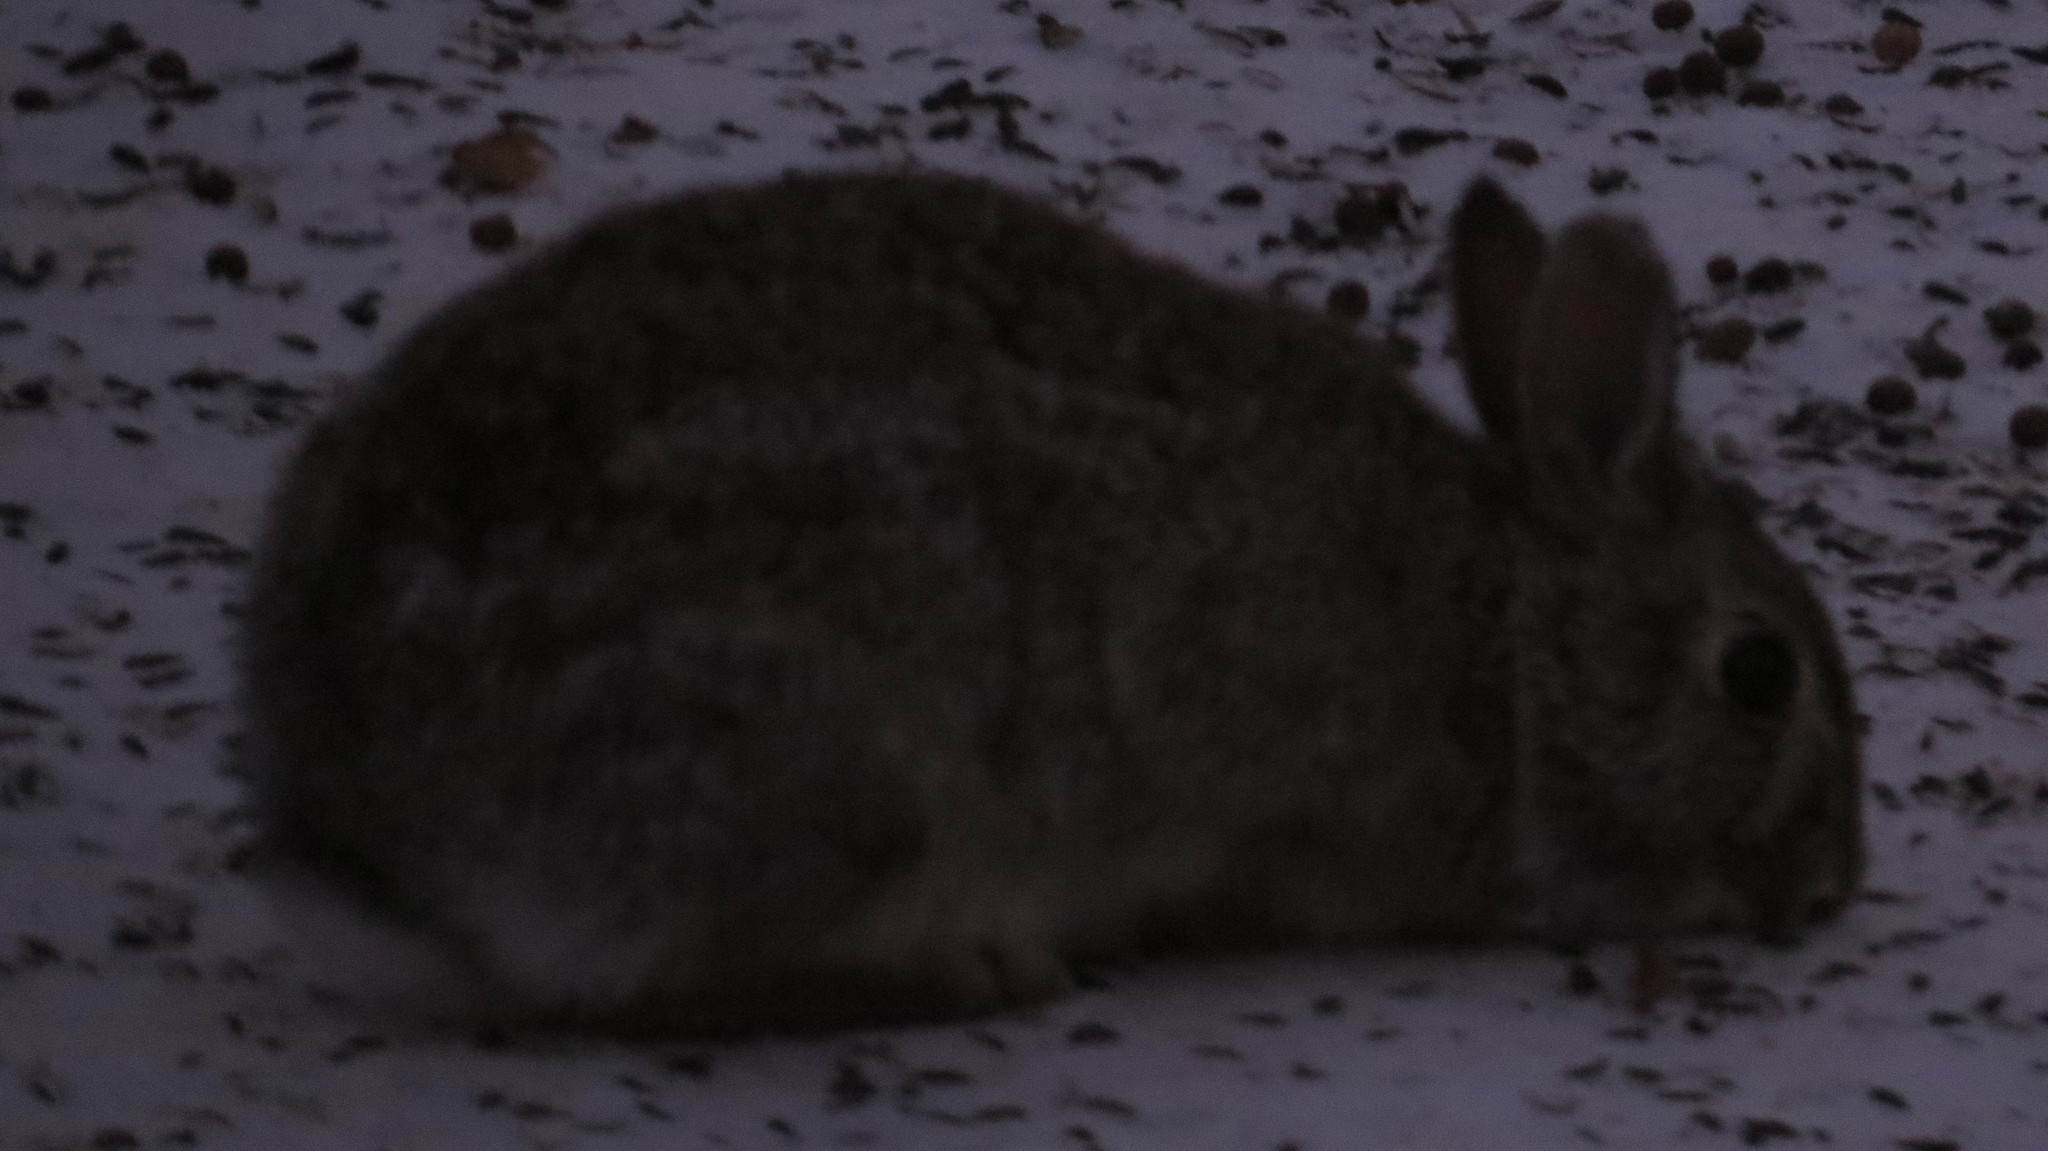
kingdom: Animalia
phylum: Chordata
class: Mammalia
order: Lagomorpha
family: Leporidae
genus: Sylvilagus
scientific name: Sylvilagus floridanus
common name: Eastern cottontail
